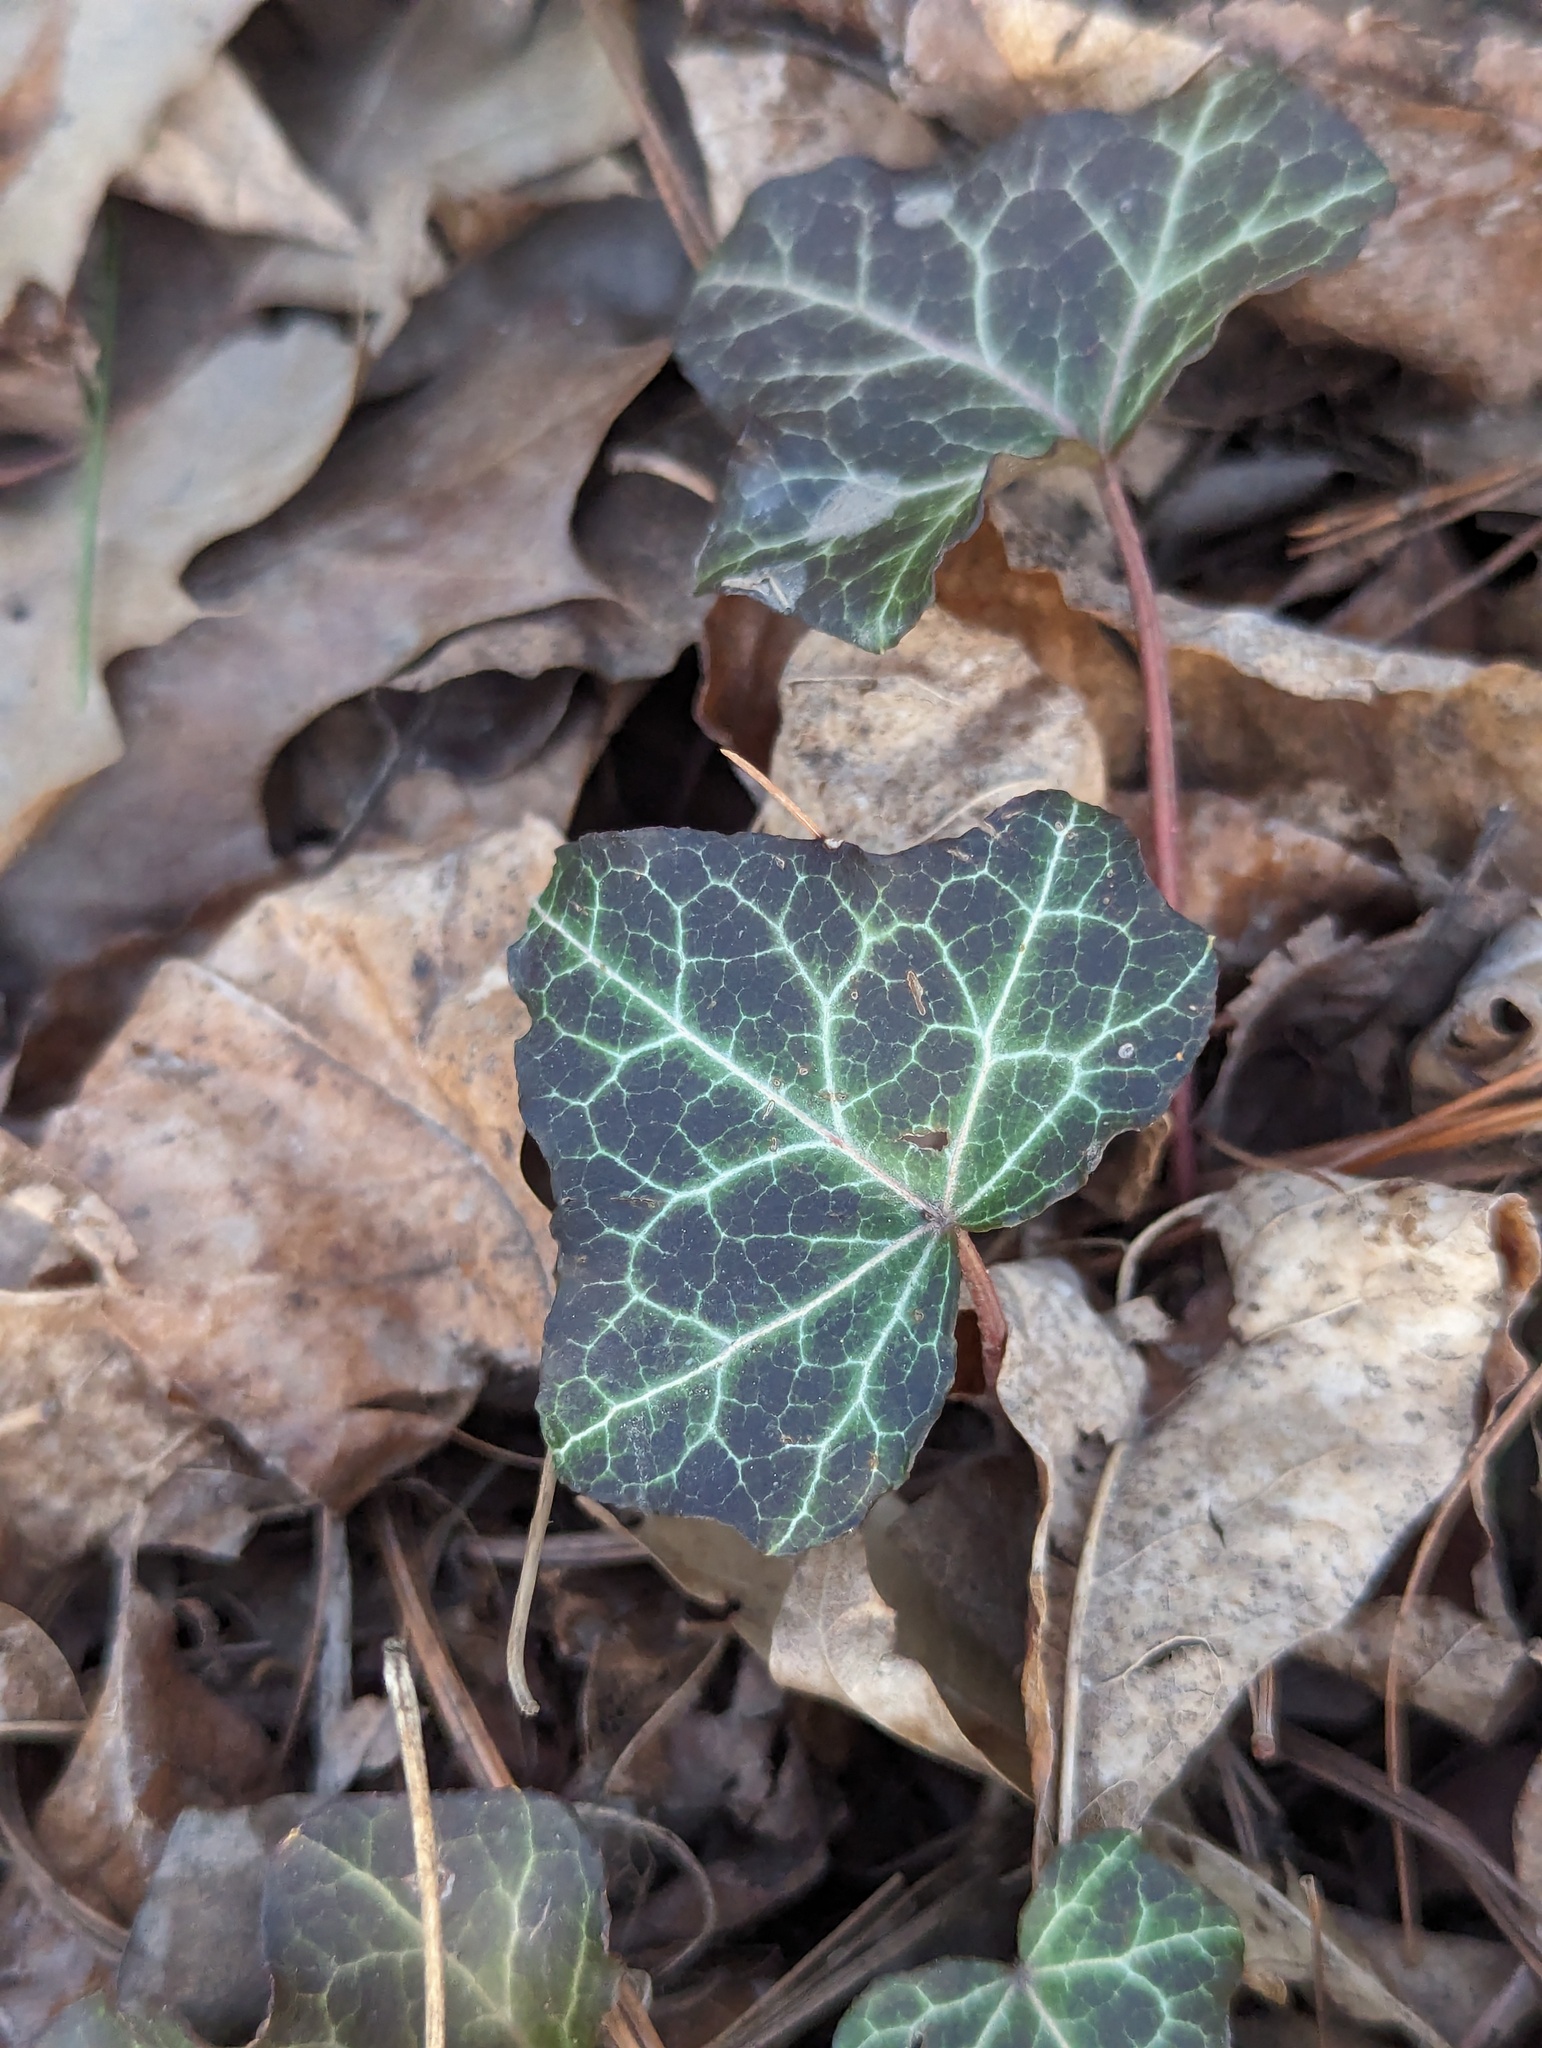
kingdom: Plantae
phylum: Tracheophyta
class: Magnoliopsida
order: Apiales
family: Araliaceae
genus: Hedera
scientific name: Hedera helix
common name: Ivy
